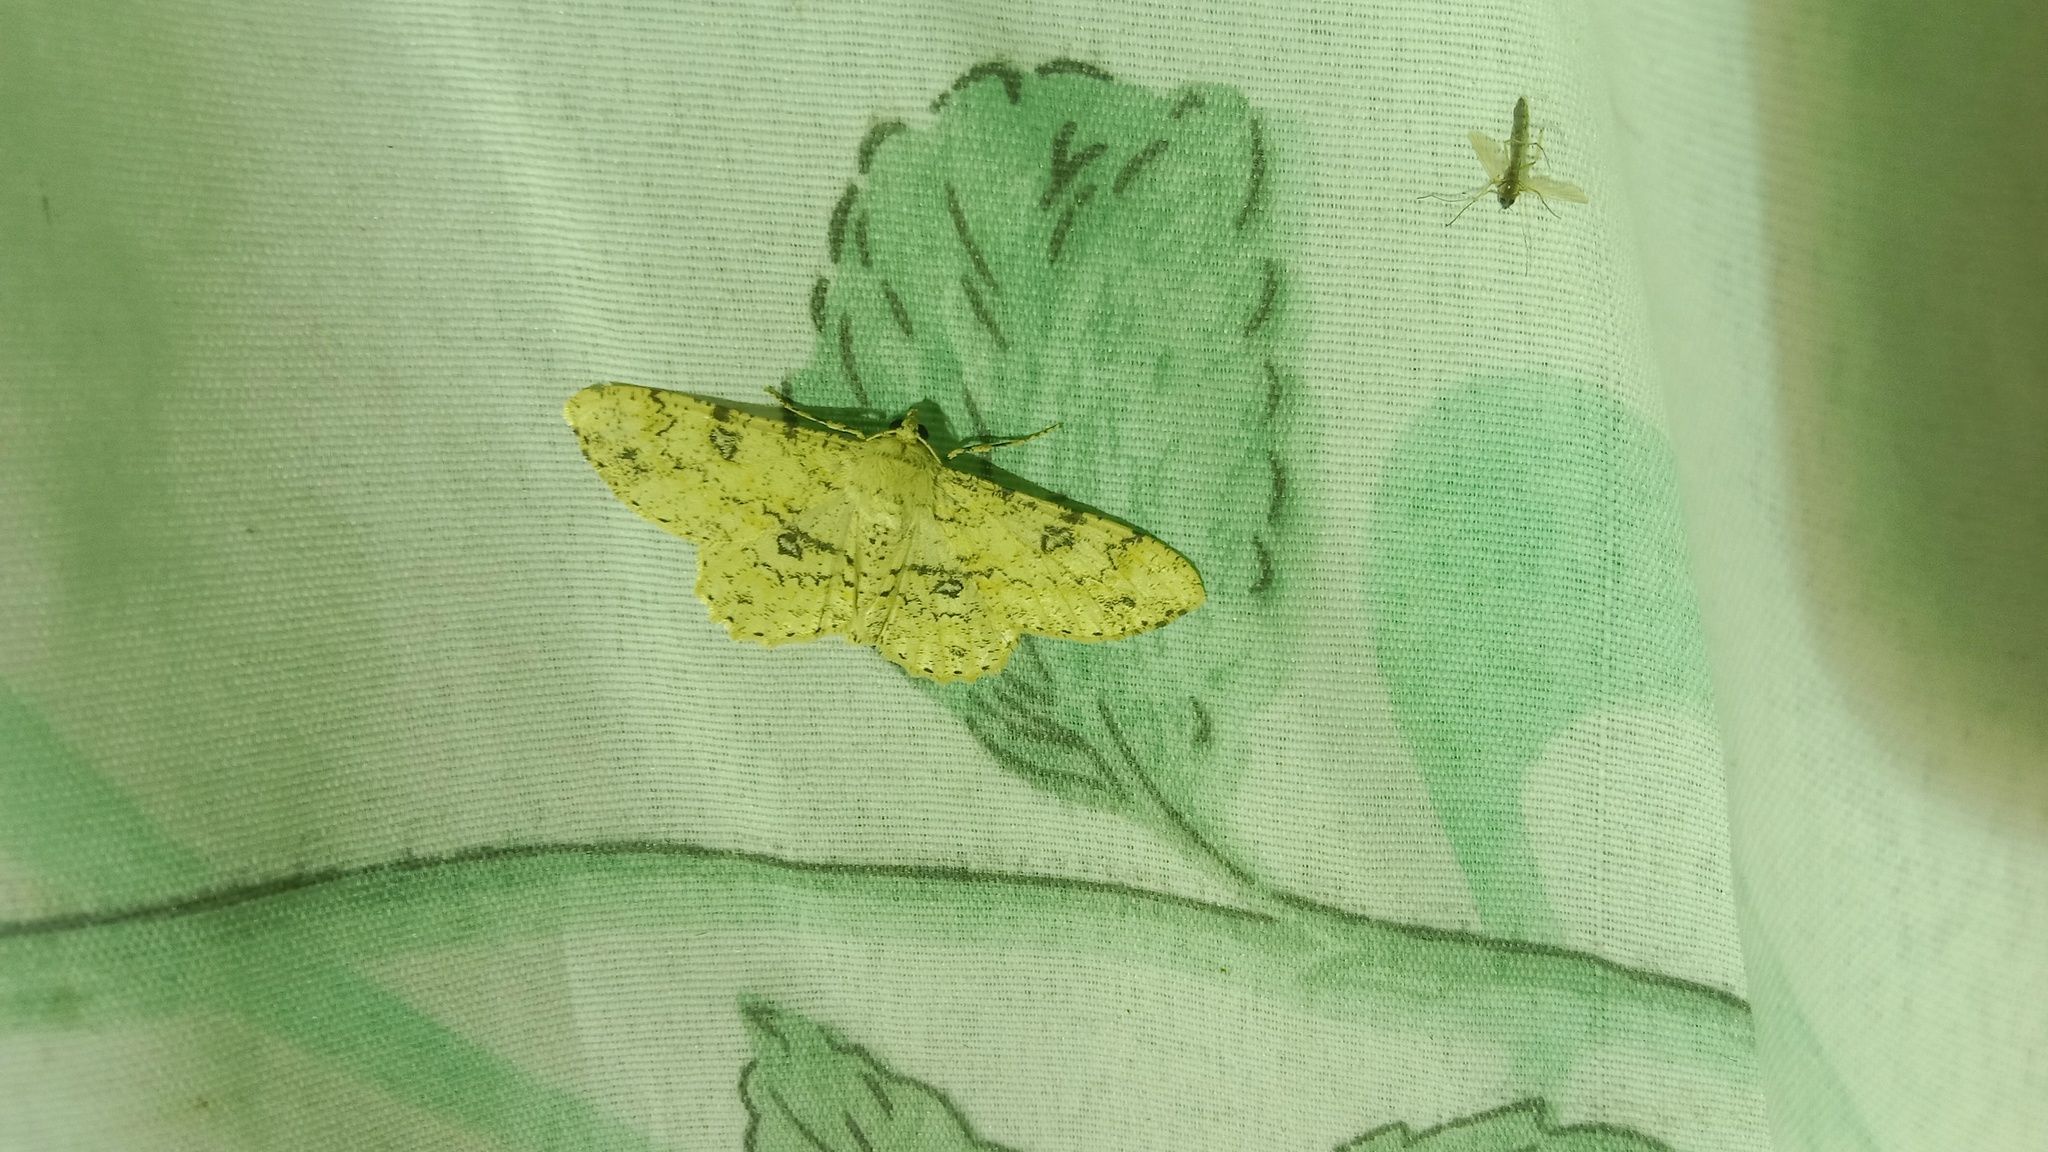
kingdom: Animalia
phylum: Arthropoda
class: Insecta
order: Lepidoptera
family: Geometridae
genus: Ascotis
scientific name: Ascotis selenaria
